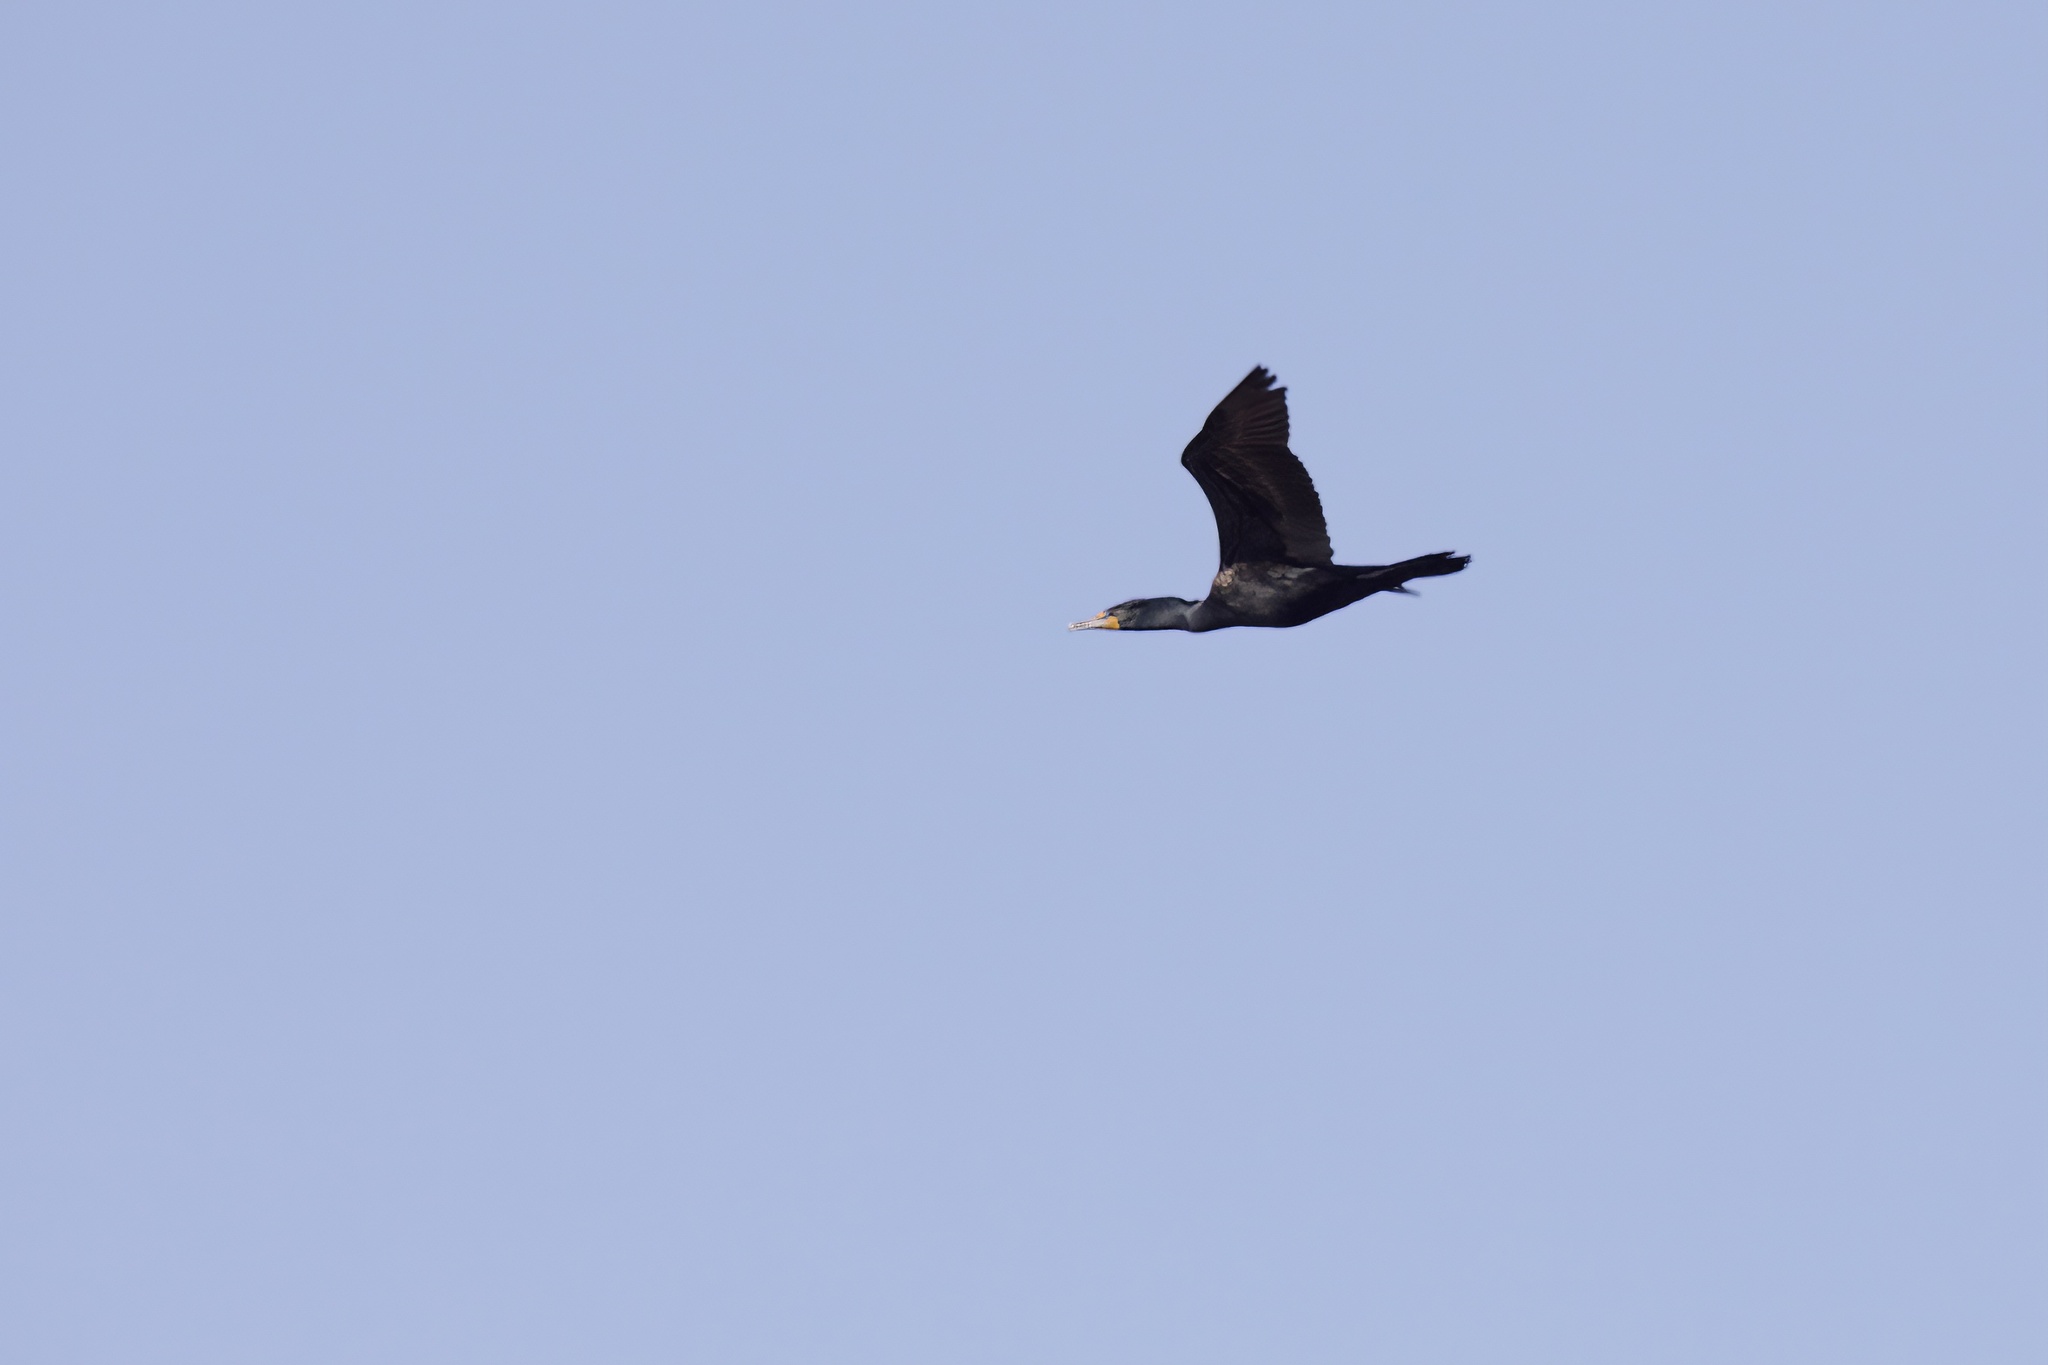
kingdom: Animalia
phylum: Chordata
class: Aves
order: Suliformes
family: Phalacrocoracidae
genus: Phalacrocorax
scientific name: Phalacrocorax auritus
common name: Double-crested cormorant
